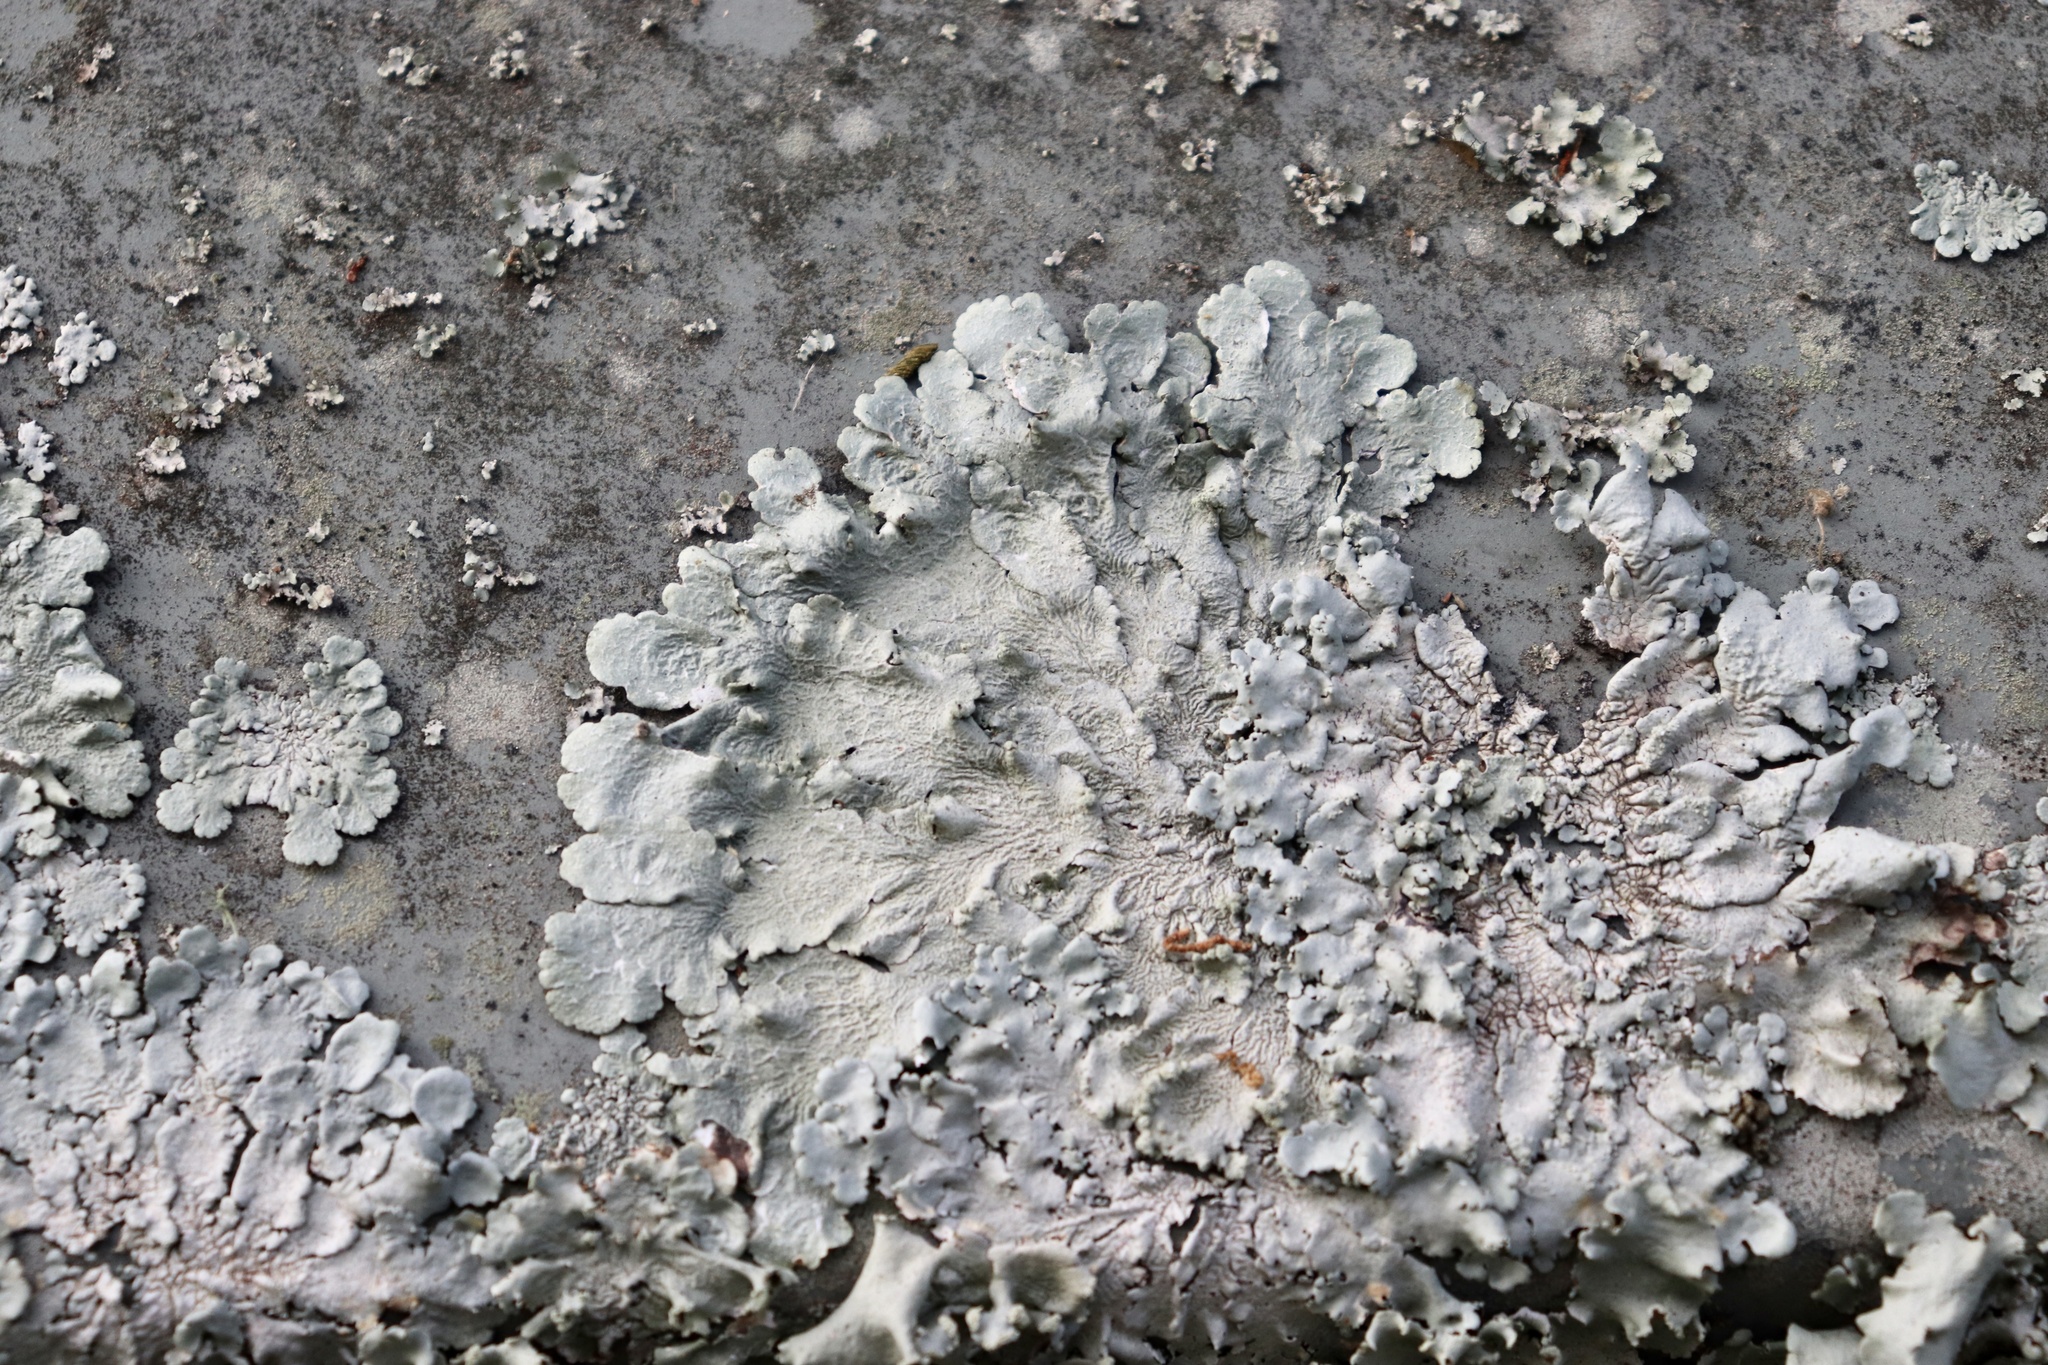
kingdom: Fungi
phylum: Ascomycota
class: Lecanoromycetes
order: Lecanorales
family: Parmeliaceae
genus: Canoparmelia
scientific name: Canoparmelia cryptochlorophaea
